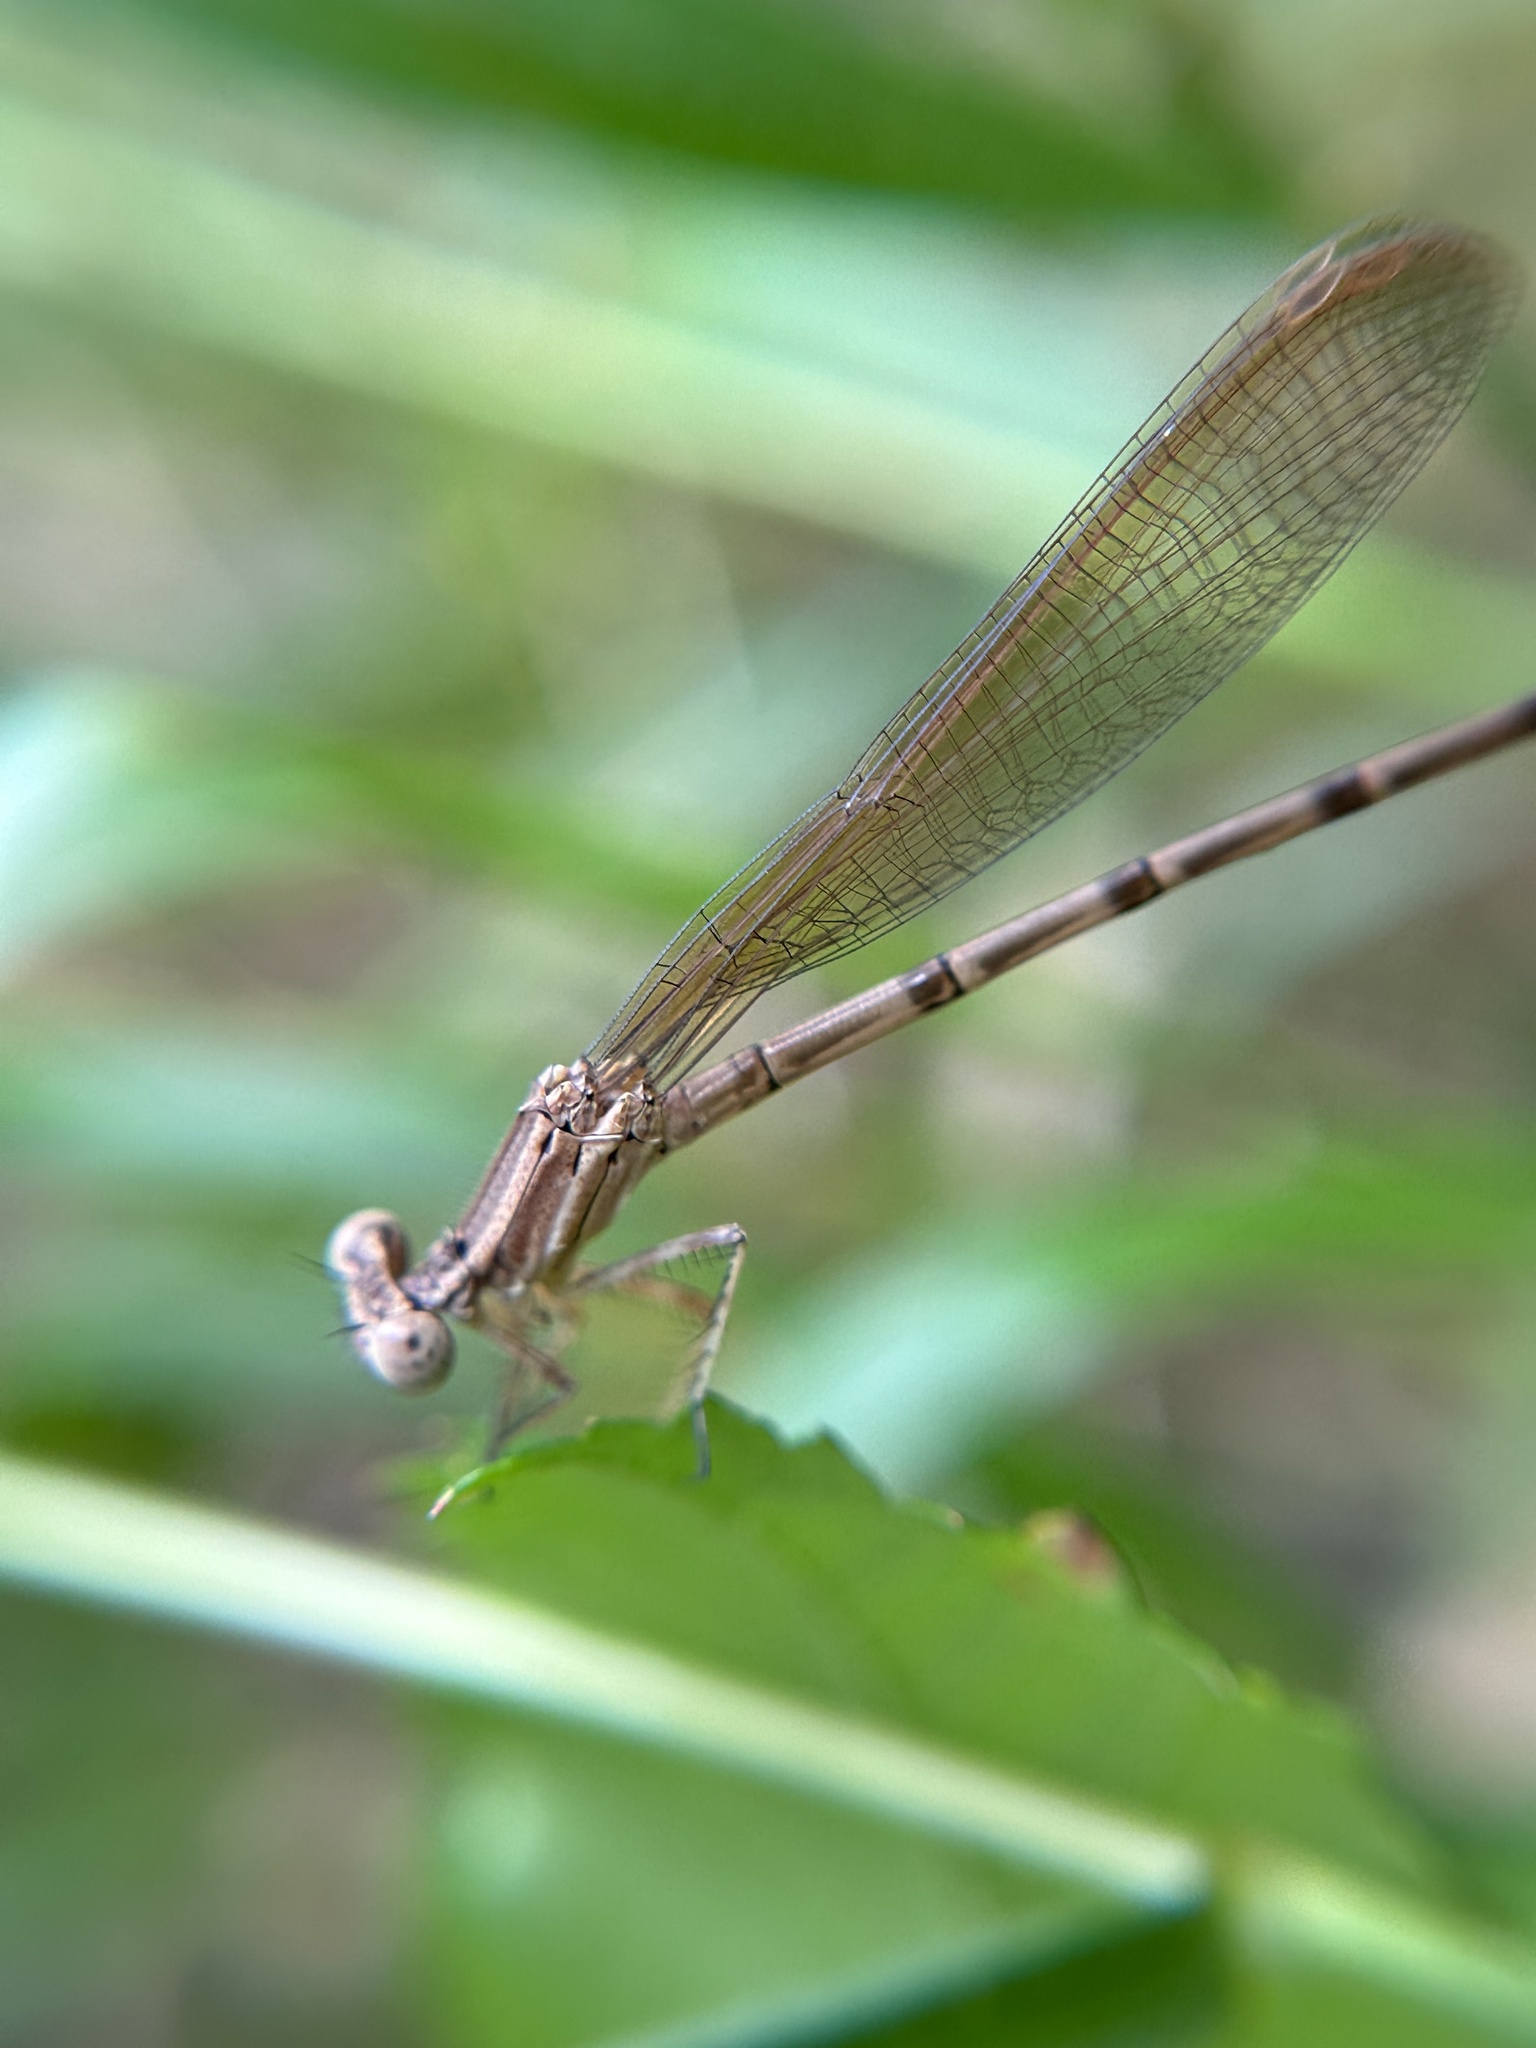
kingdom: Animalia
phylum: Arthropoda
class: Insecta
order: Odonata
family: Coenagrionidae
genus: Argia
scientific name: Argia sedula
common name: Blue-ringed dancer
